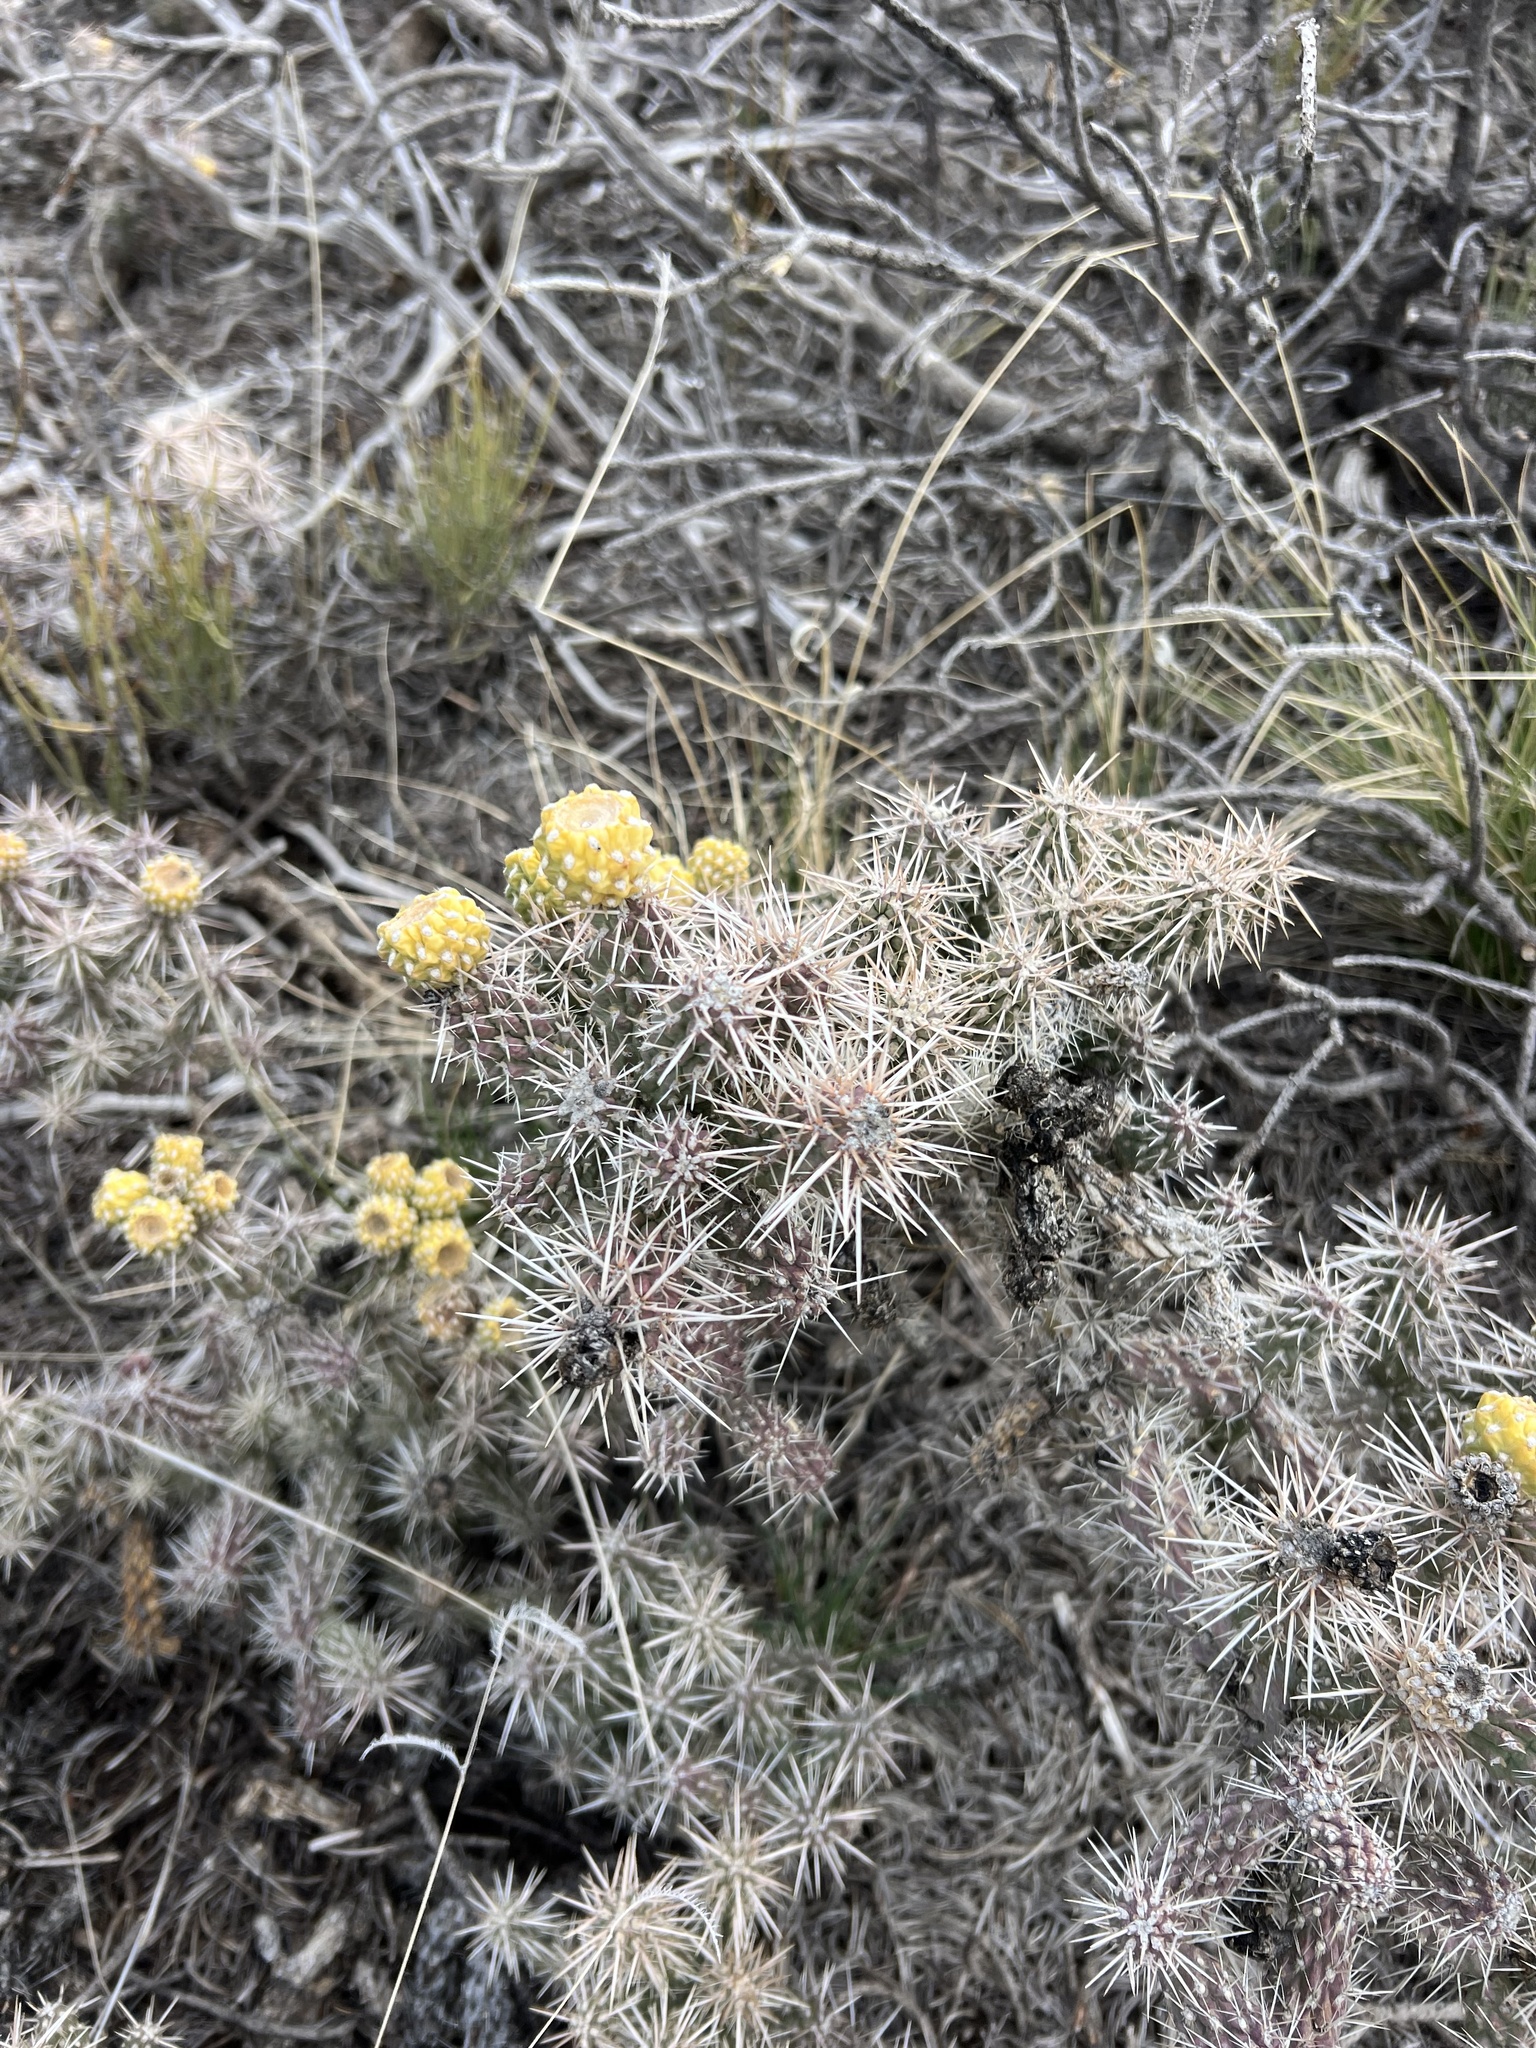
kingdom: Plantae
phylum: Tracheophyta
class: Magnoliopsida
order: Caryophyllales
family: Cactaceae
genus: Cylindropuntia
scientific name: Cylindropuntia whipplei
